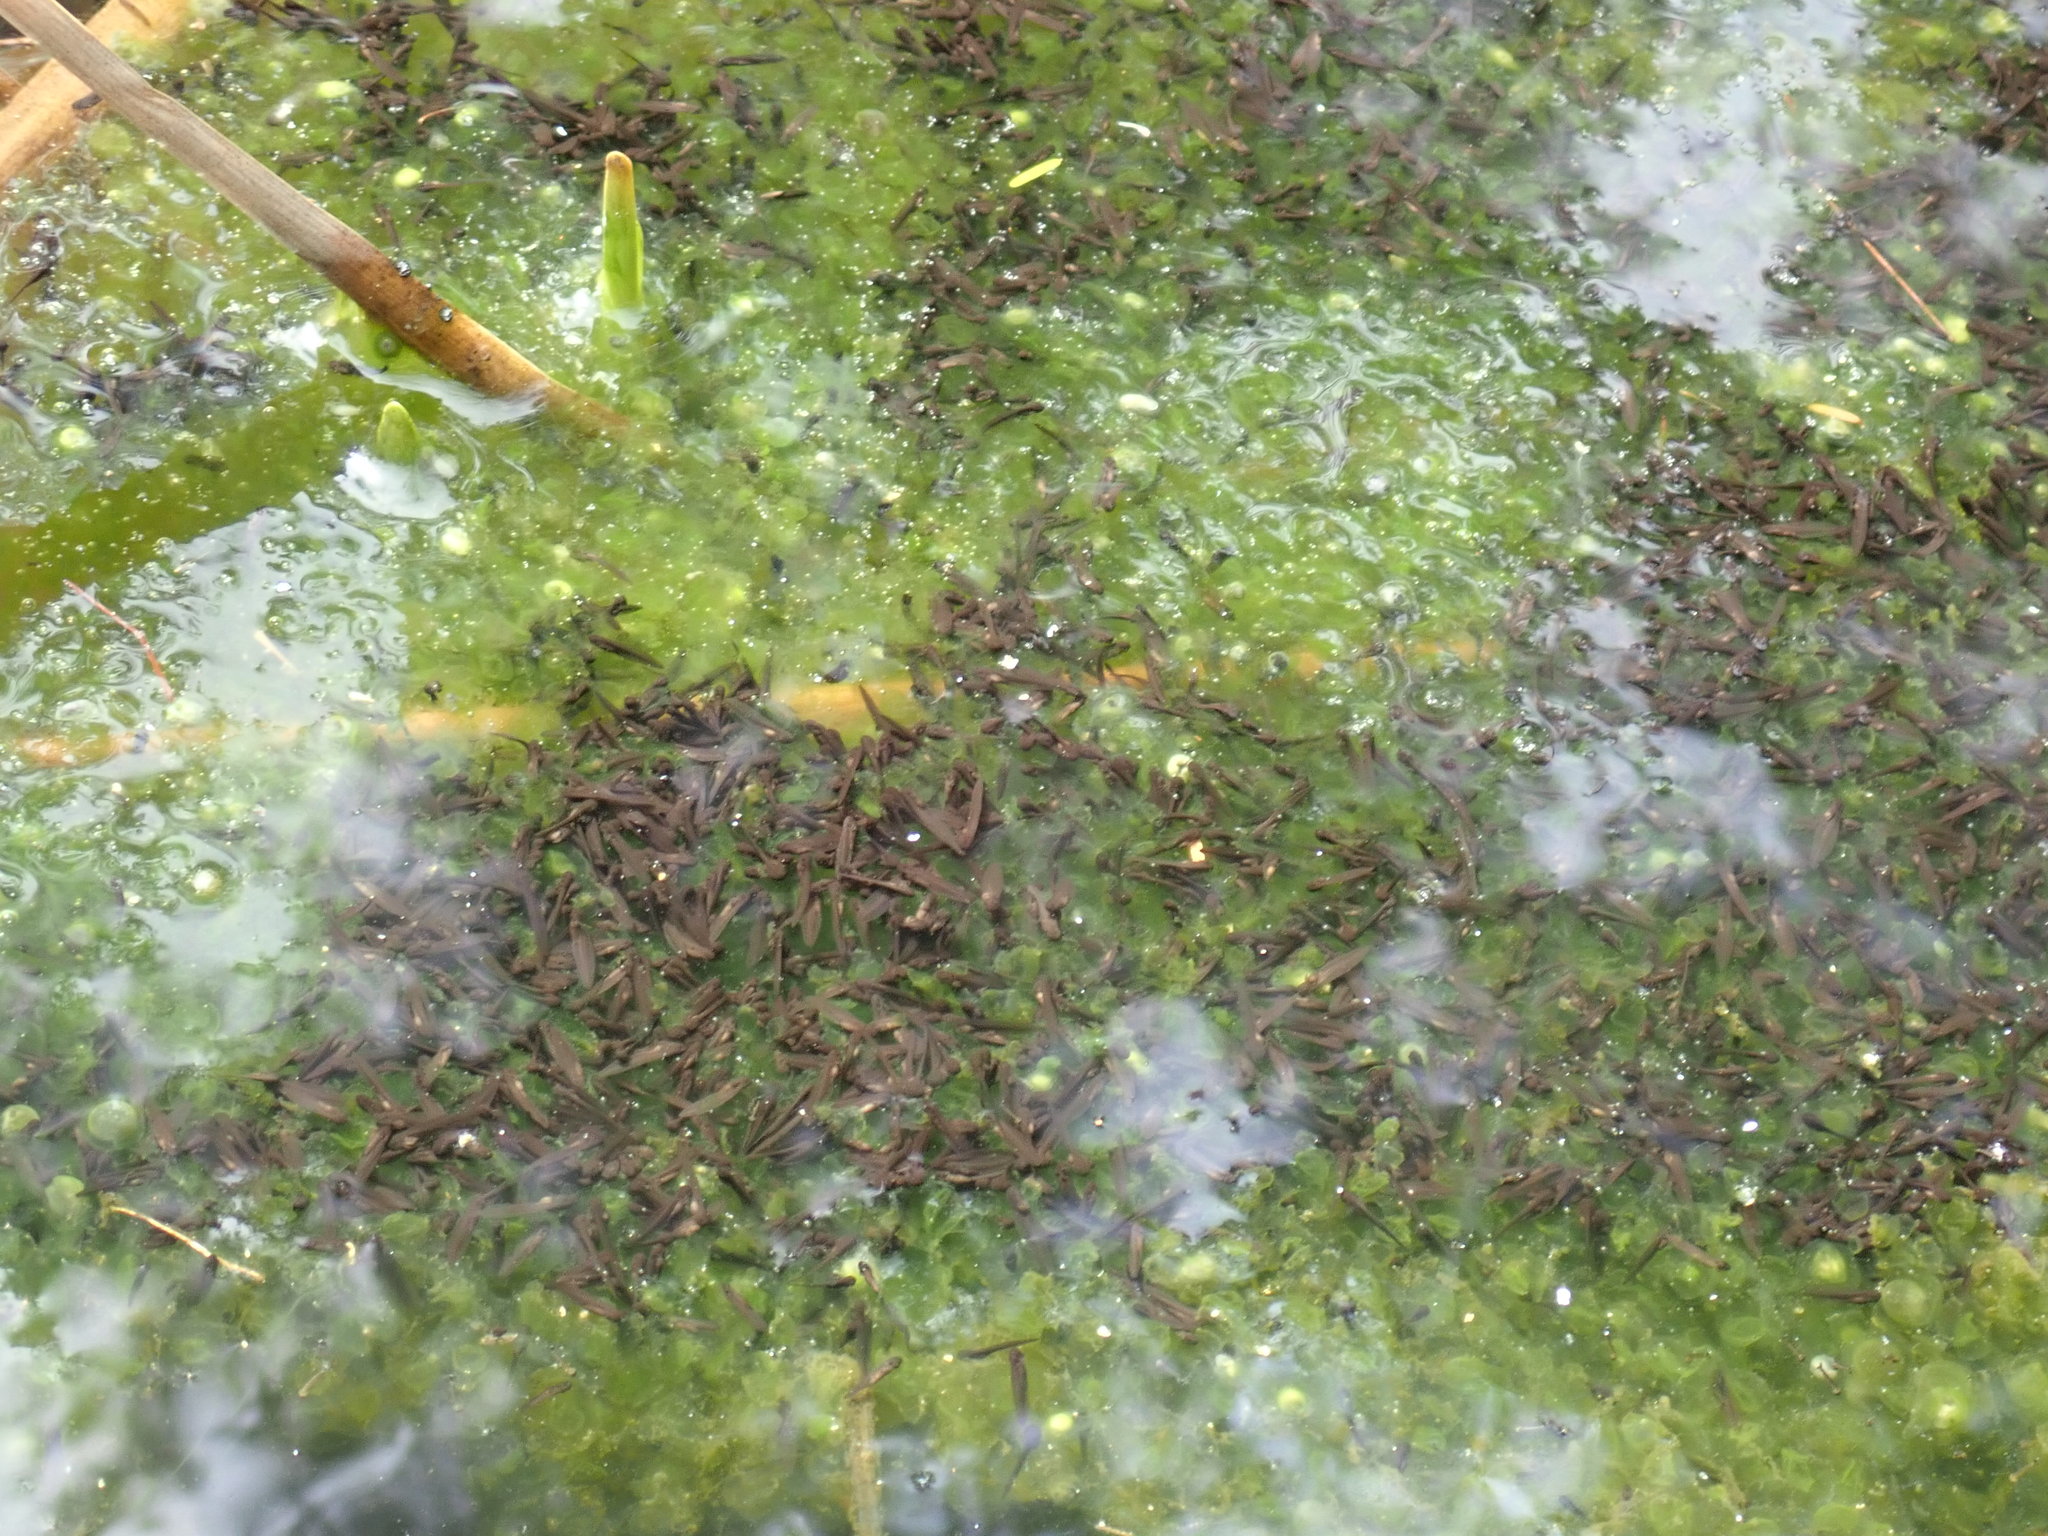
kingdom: Animalia
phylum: Chordata
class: Amphibia
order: Anura
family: Ranidae
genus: Lithobates
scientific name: Lithobates sylvaticus
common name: Wood frog
